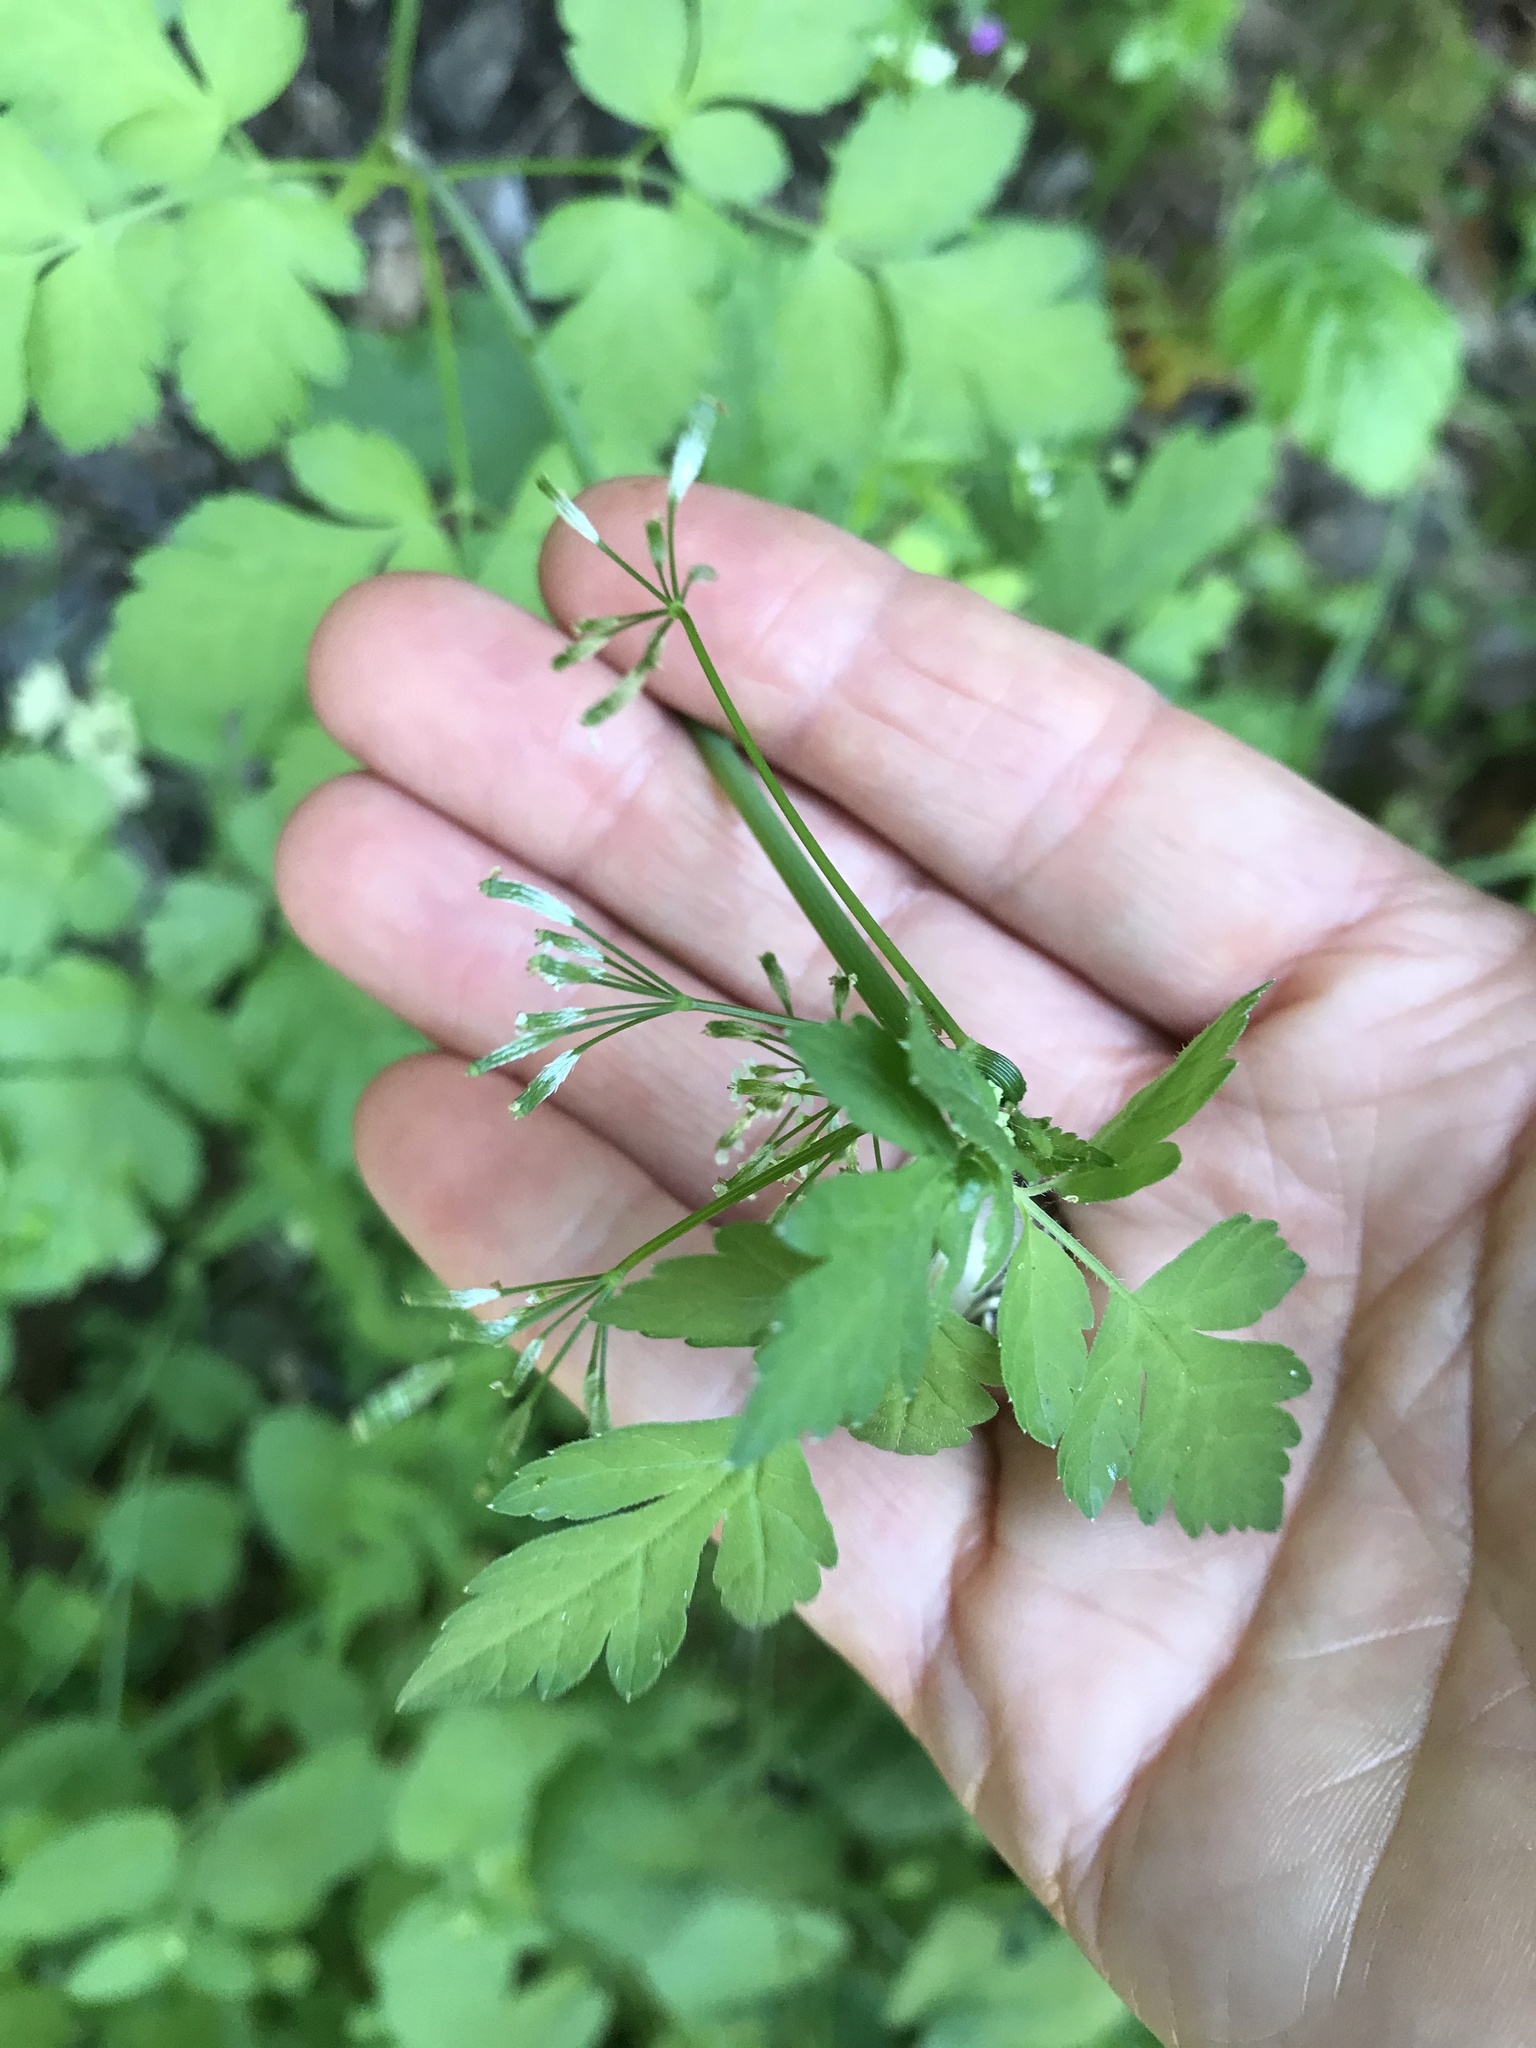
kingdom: Plantae
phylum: Tracheophyta
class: Magnoliopsida
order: Apiales
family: Apiaceae
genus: Osmorhiza
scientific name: Osmorhiza berteroi
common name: Mountain sweet cicely
